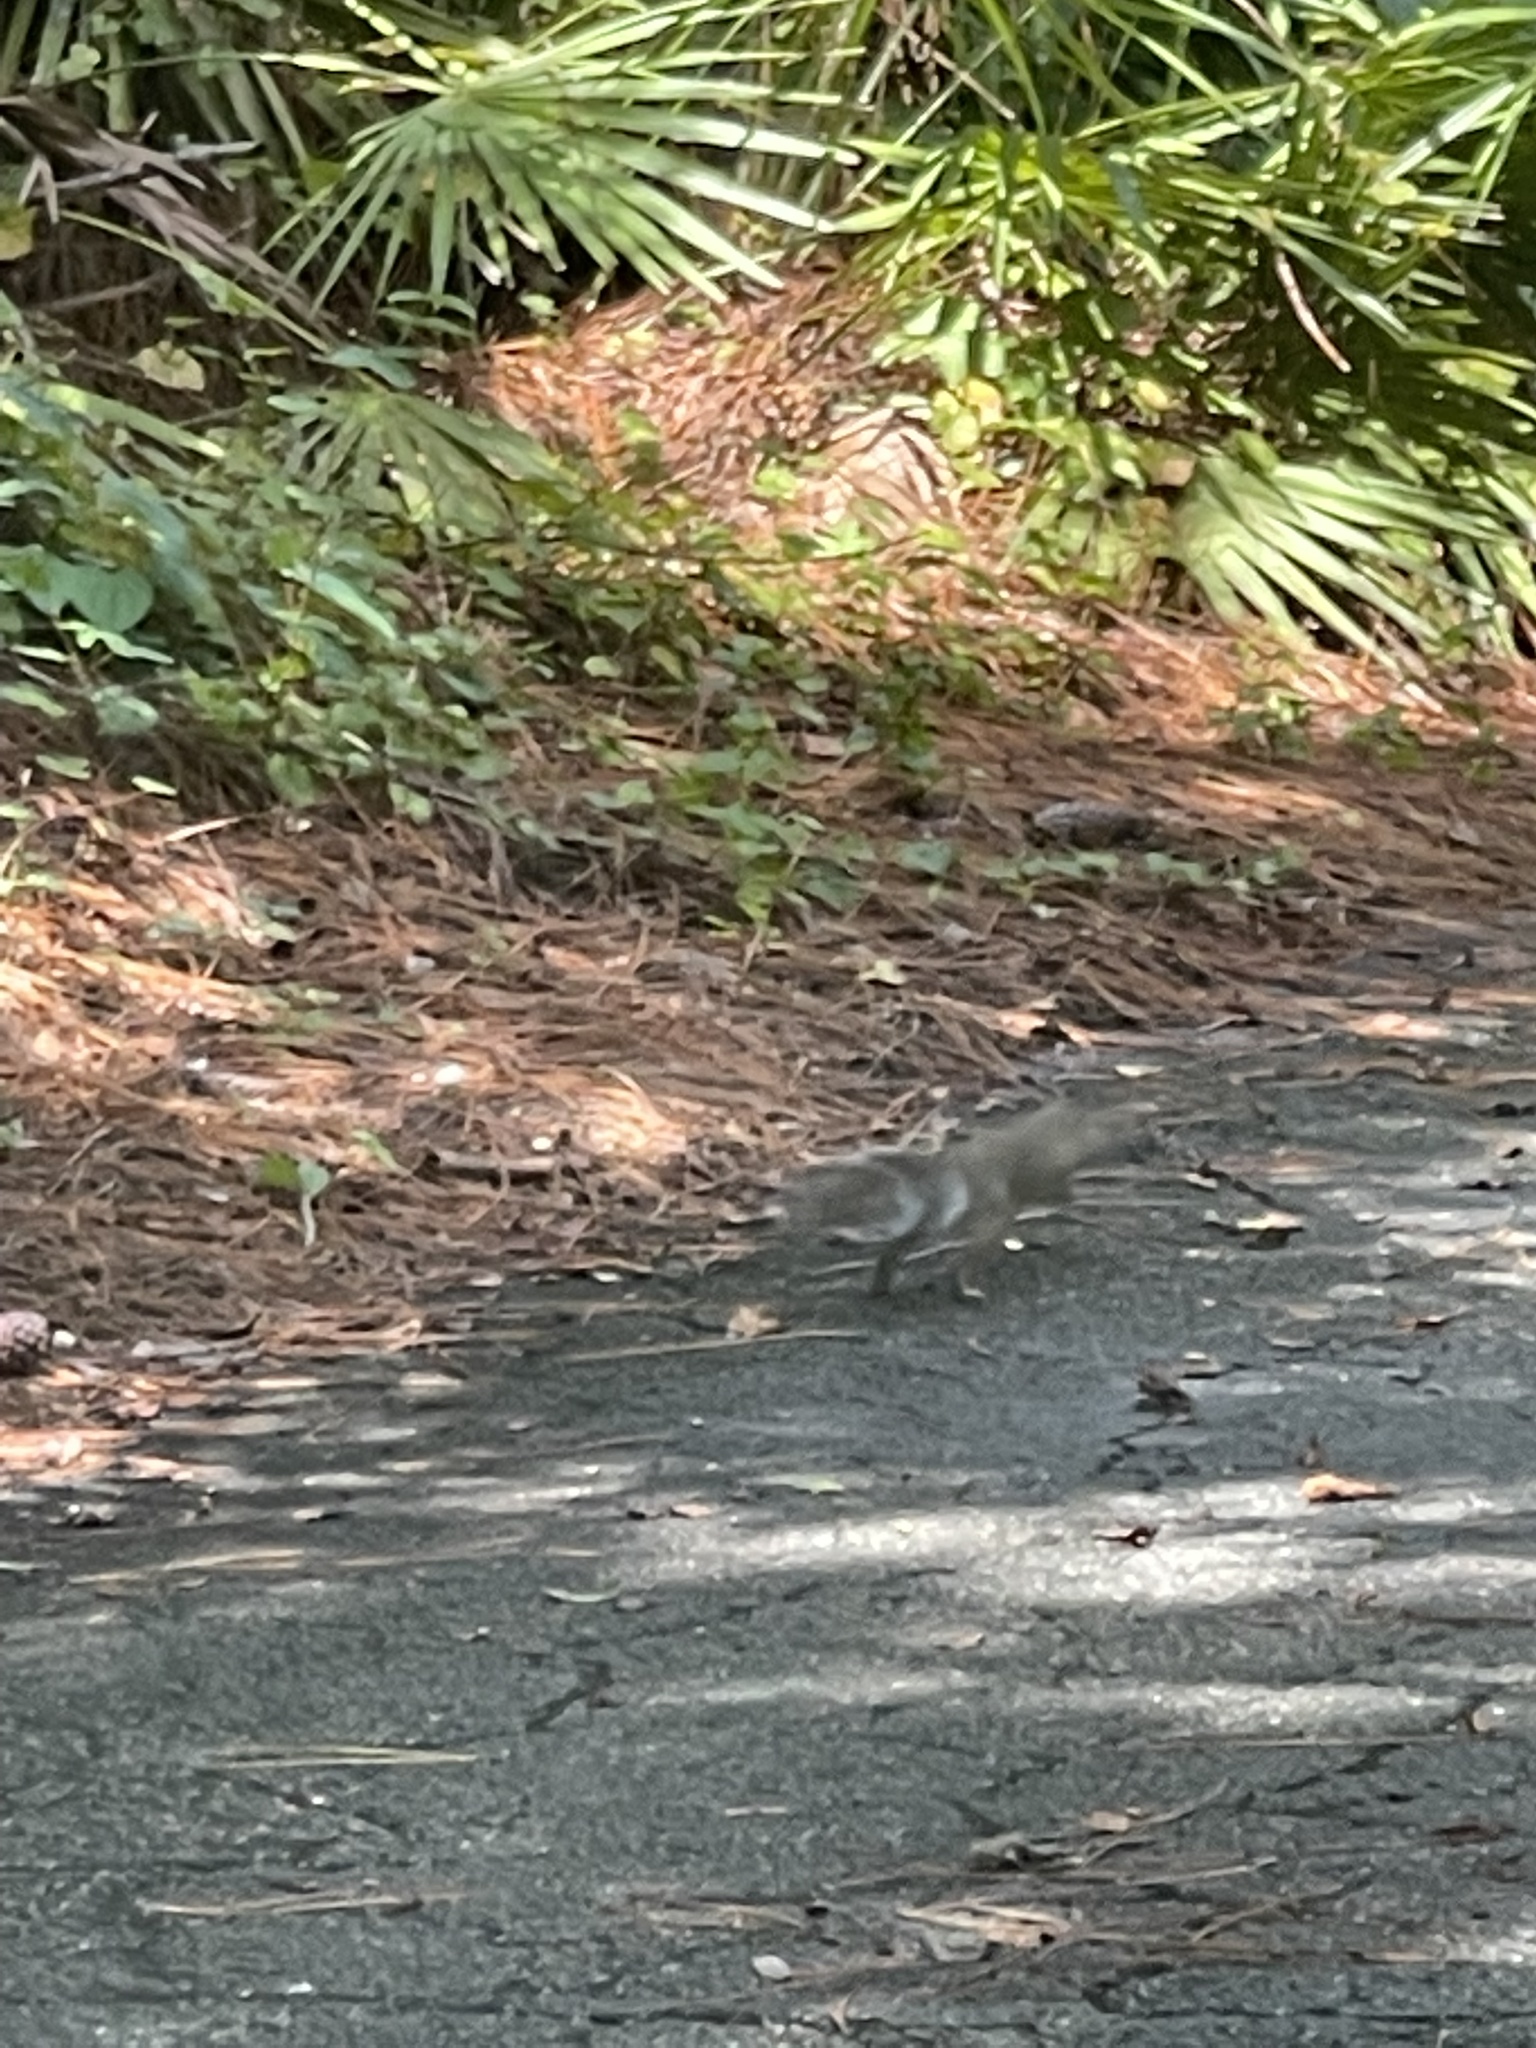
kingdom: Animalia
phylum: Chordata
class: Mammalia
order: Rodentia
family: Sciuridae
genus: Sciurus
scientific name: Sciurus carolinensis
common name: Eastern gray squirrel
